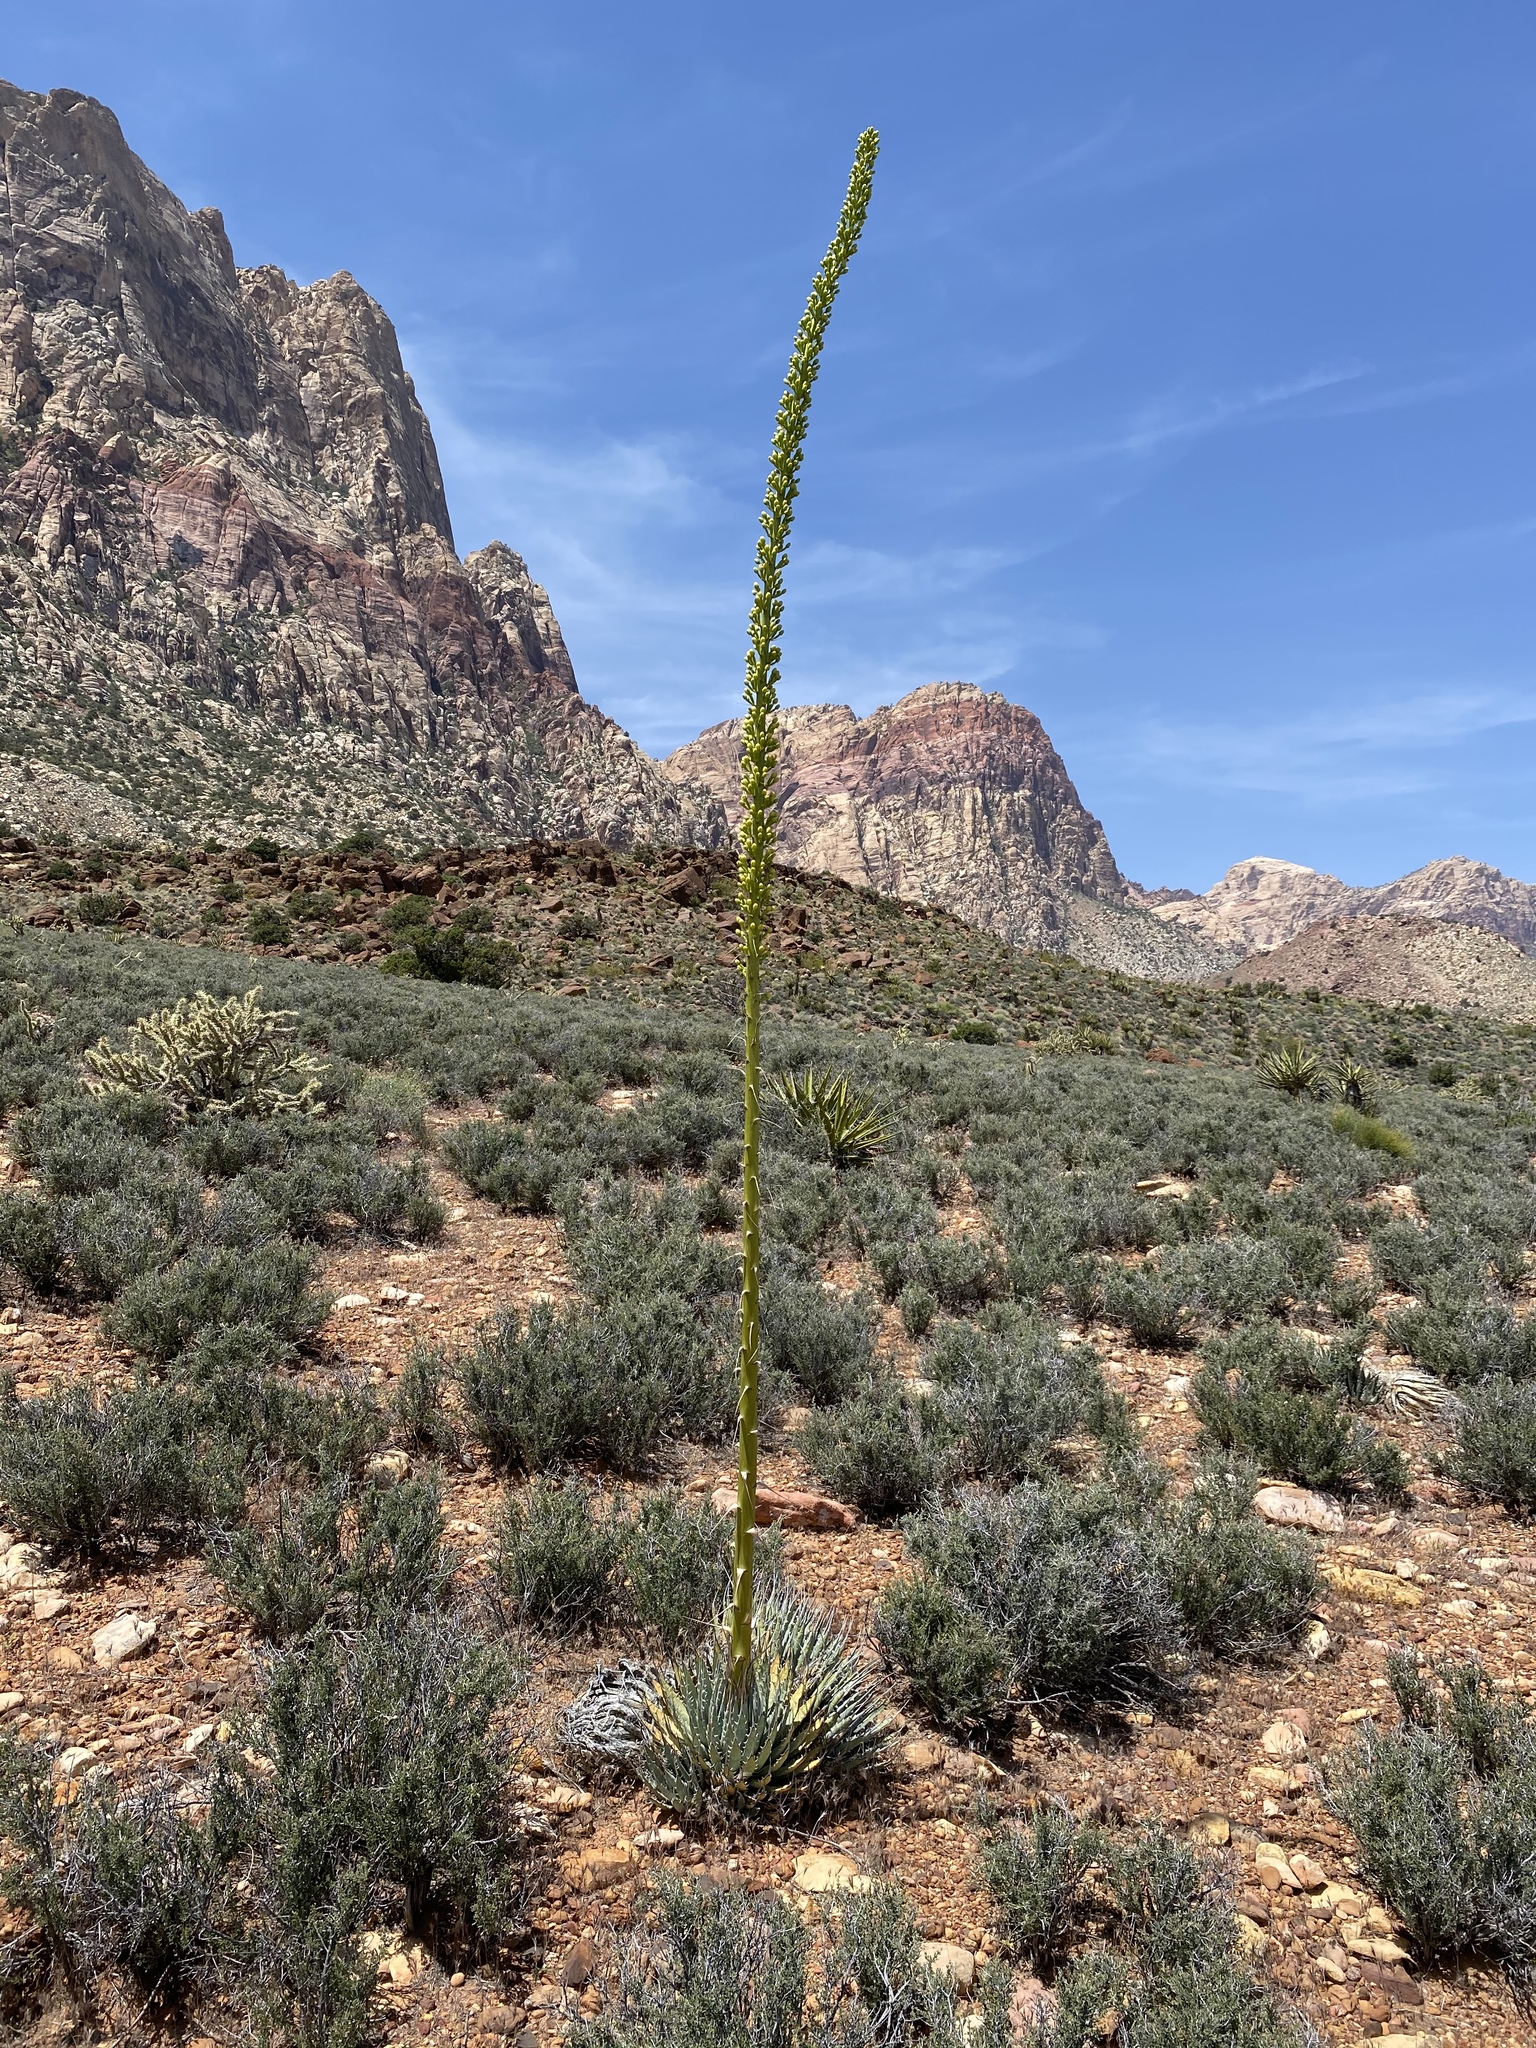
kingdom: Plantae
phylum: Tracheophyta
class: Liliopsida
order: Asparagales
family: Asparagaceae
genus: Agave
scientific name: Agave utahensis
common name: Utah agave
